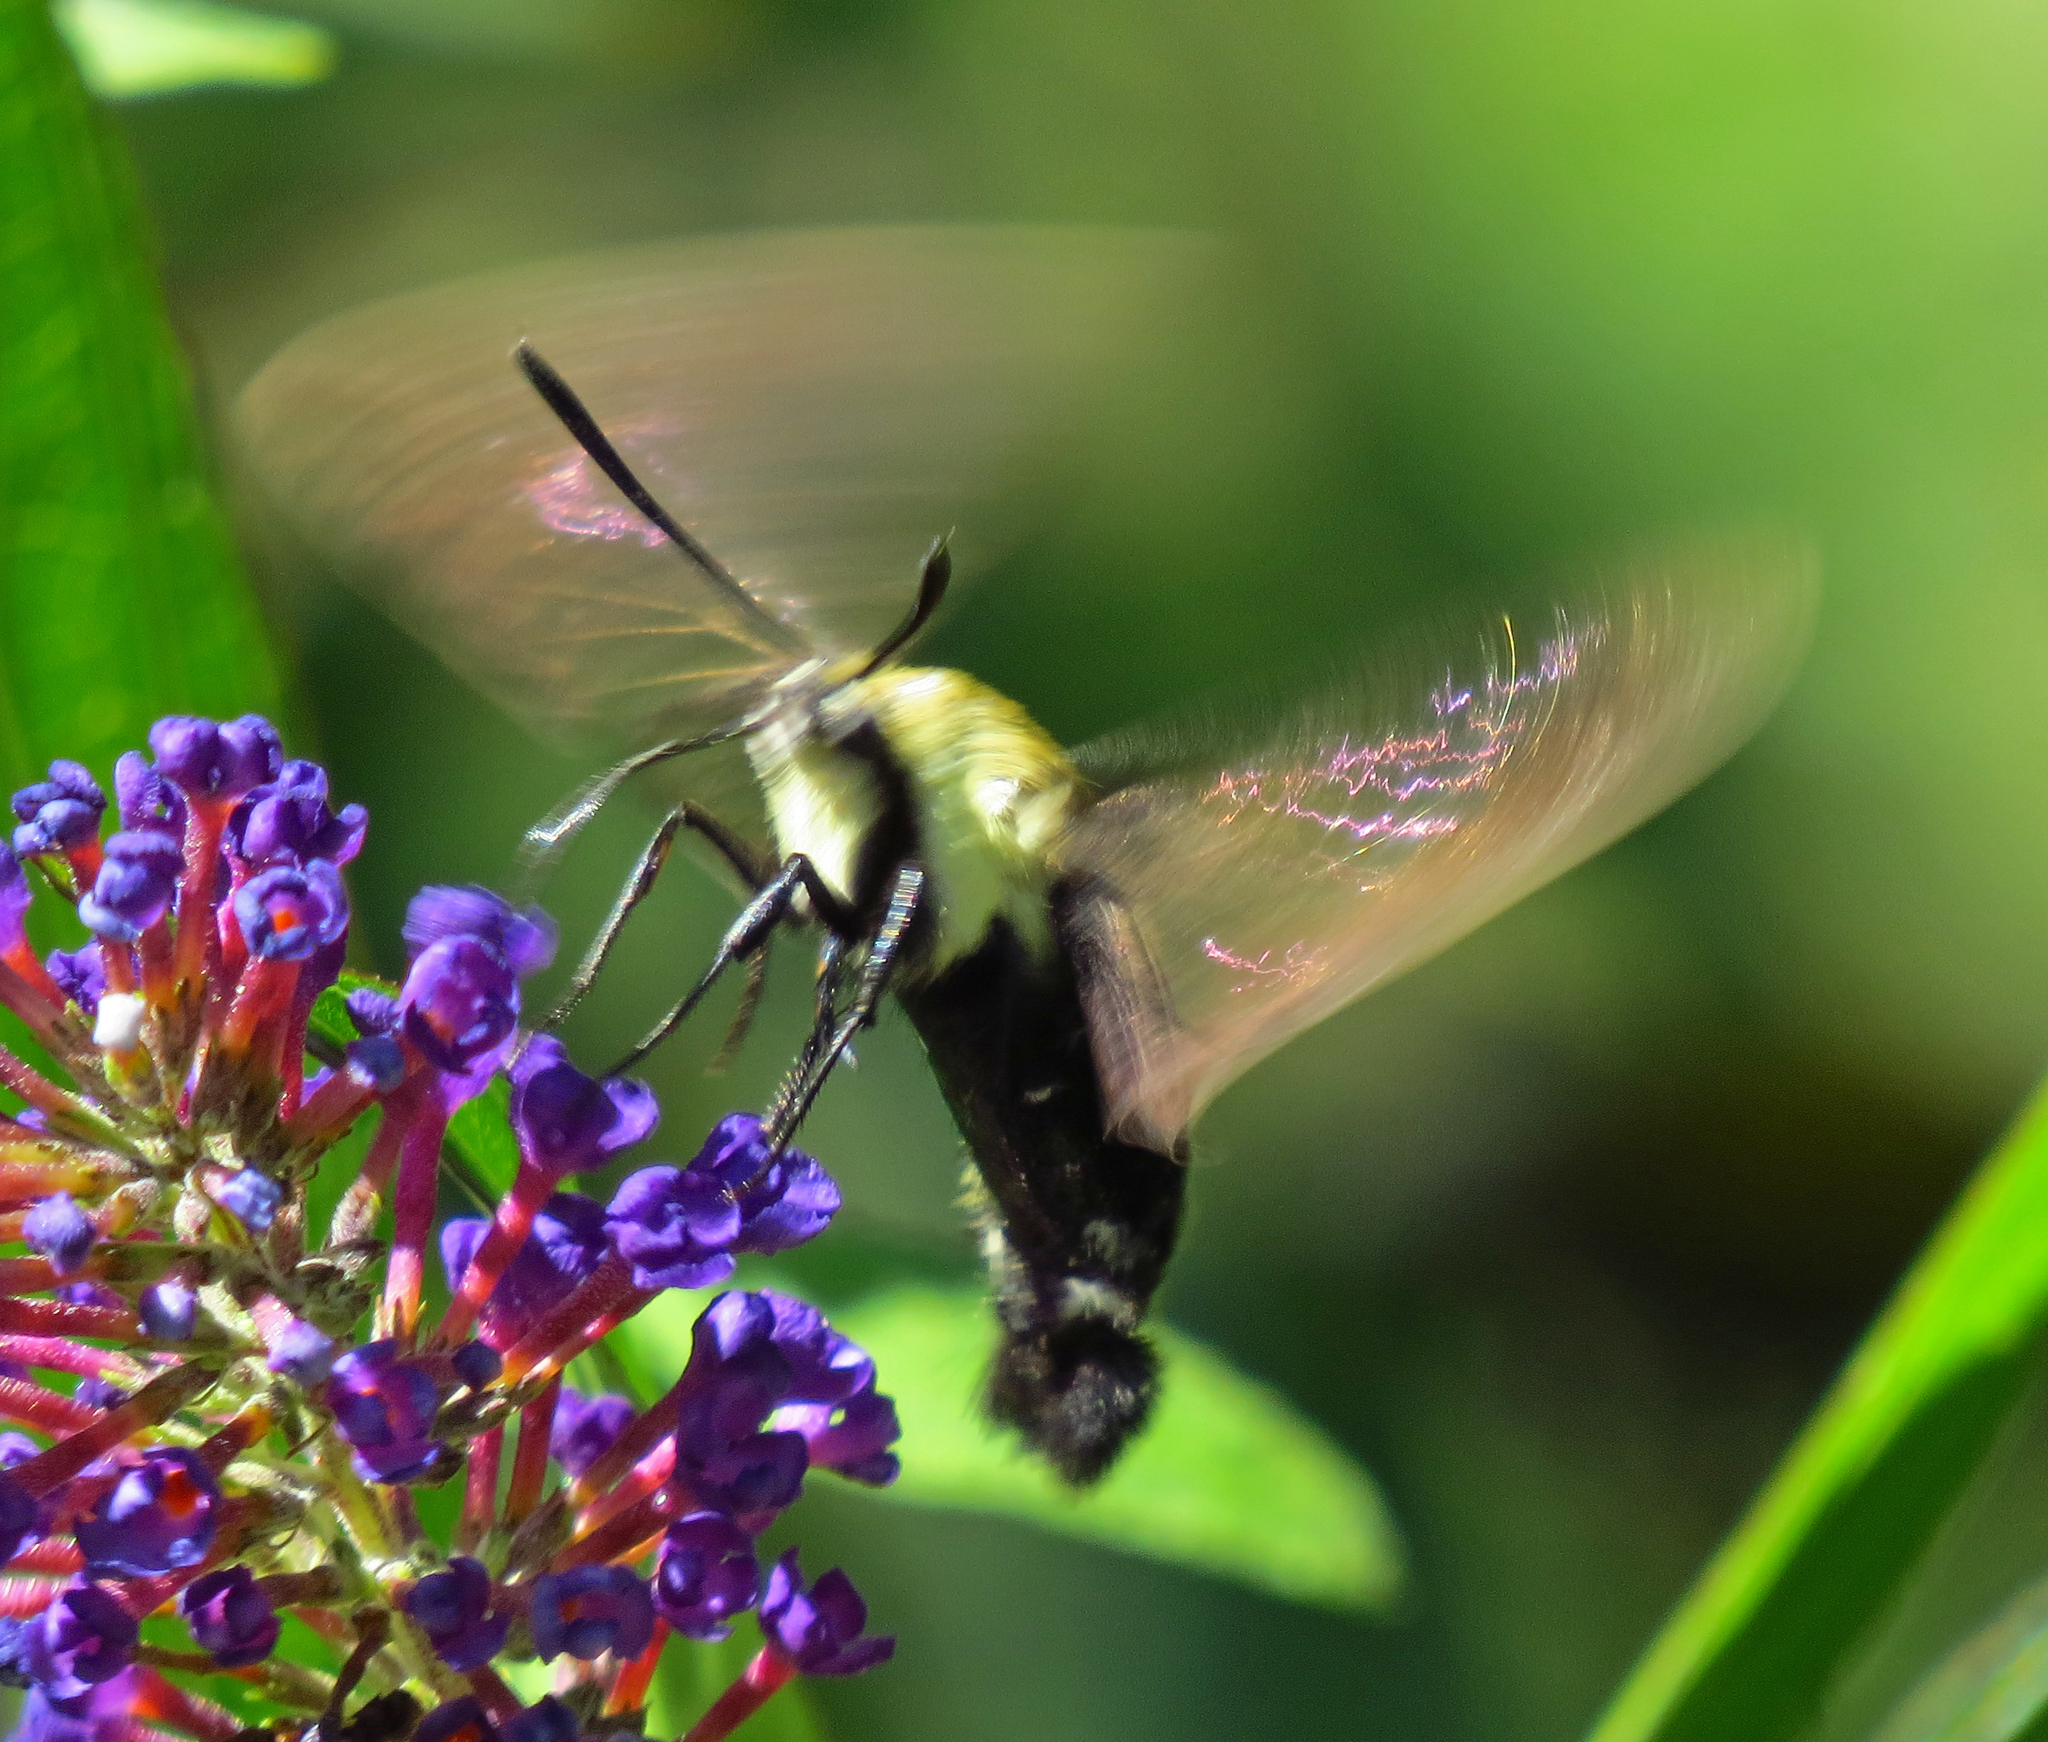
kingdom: Animalia
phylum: Arthropoda
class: Insecta
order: Lepidoptera
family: Sphingidae
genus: Hemaris
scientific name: Hemaris diffinis
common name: Bumblebee moth
